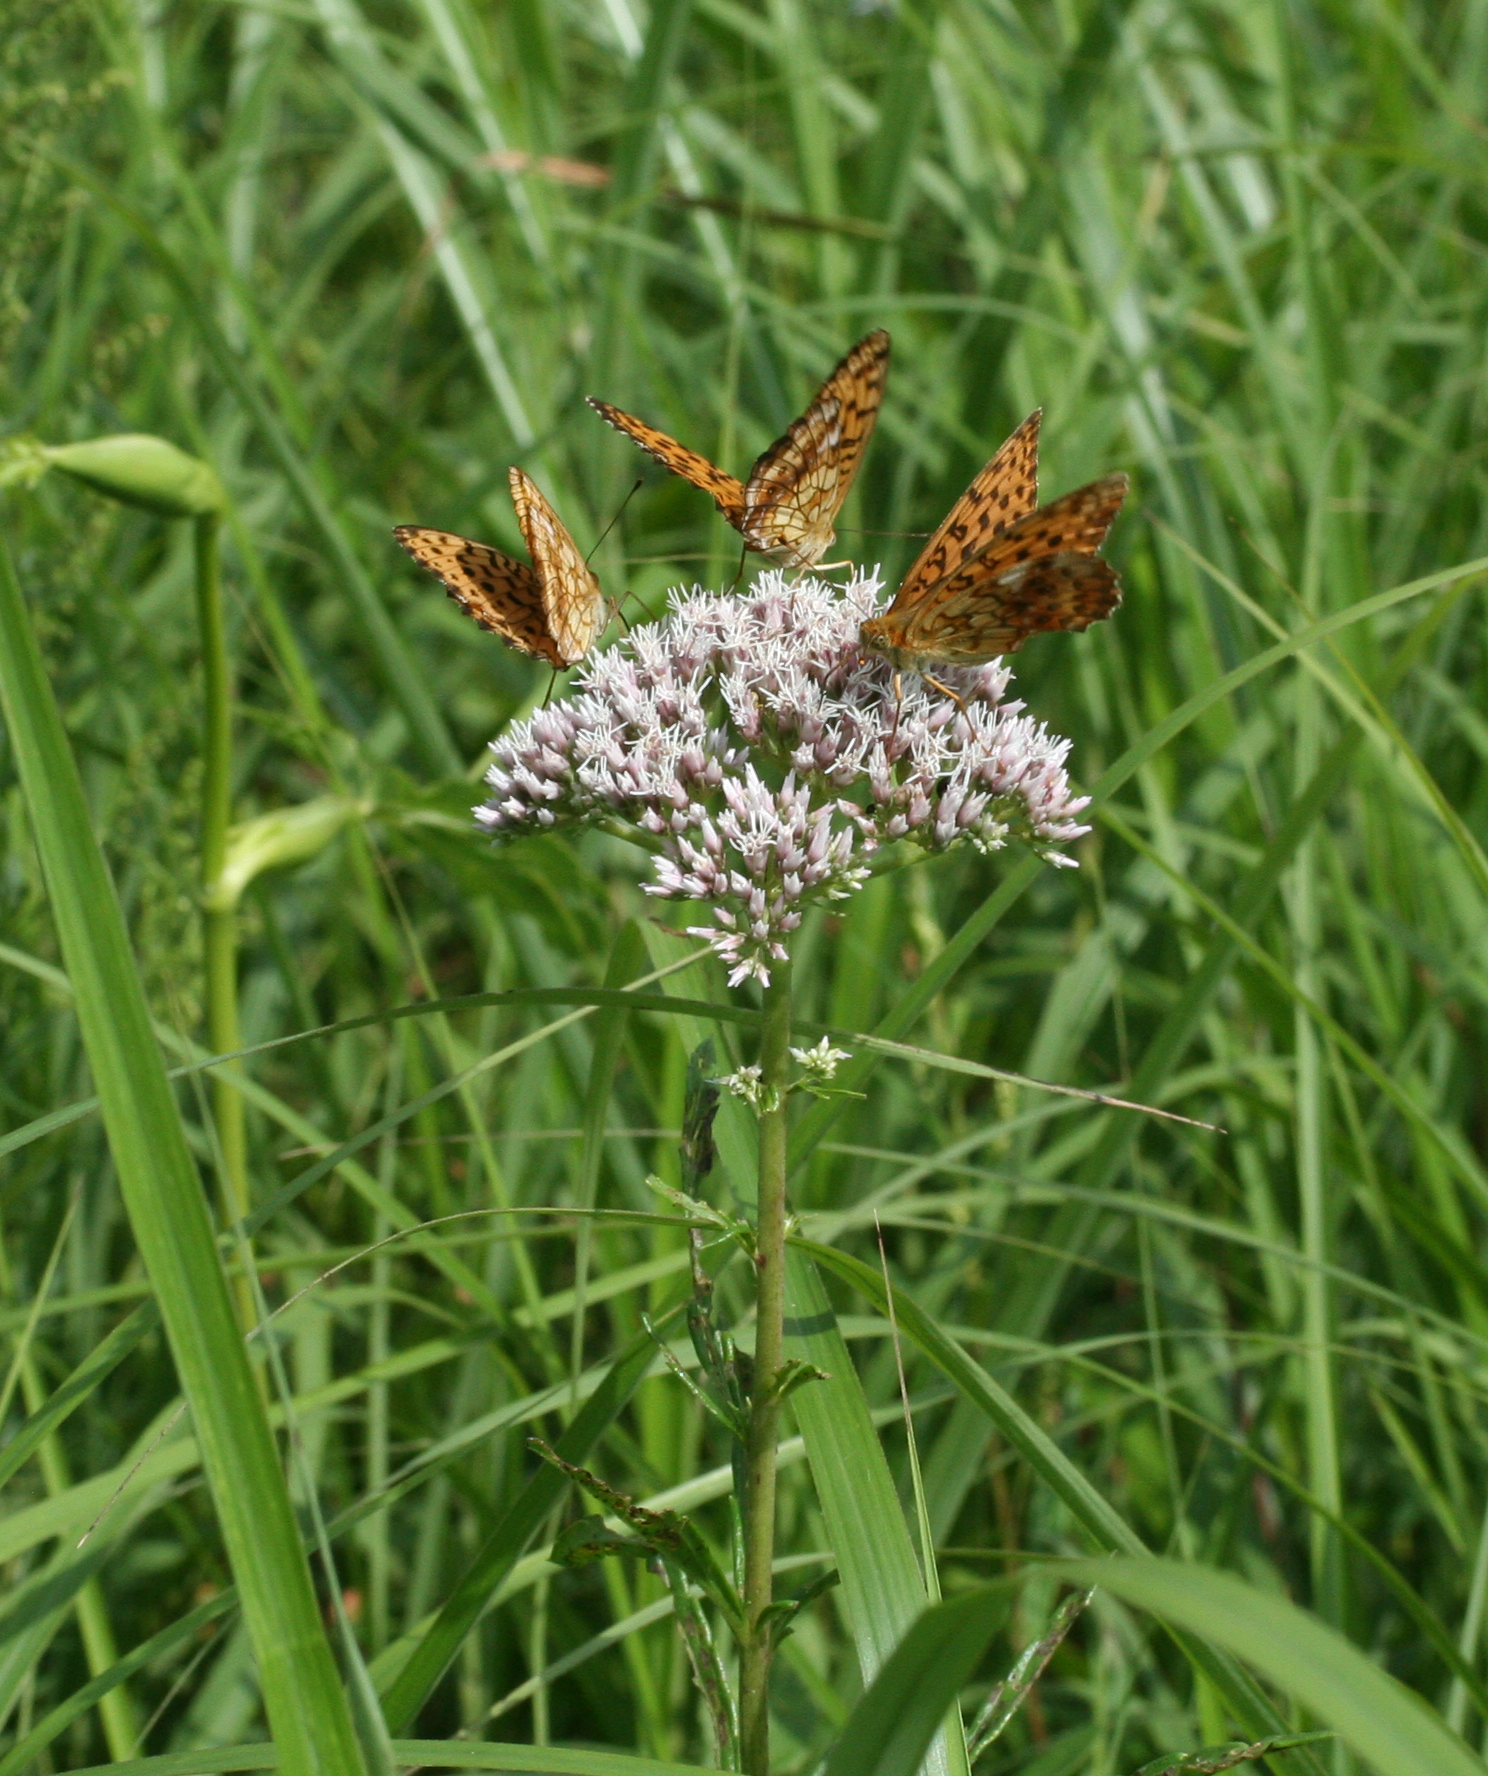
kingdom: Animalia
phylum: Arthropoda
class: Insecta
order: Lepidoptera
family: Nymphalidae
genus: Brenthis
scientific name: Brenthis ino
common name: Lesser marbled fritillary
